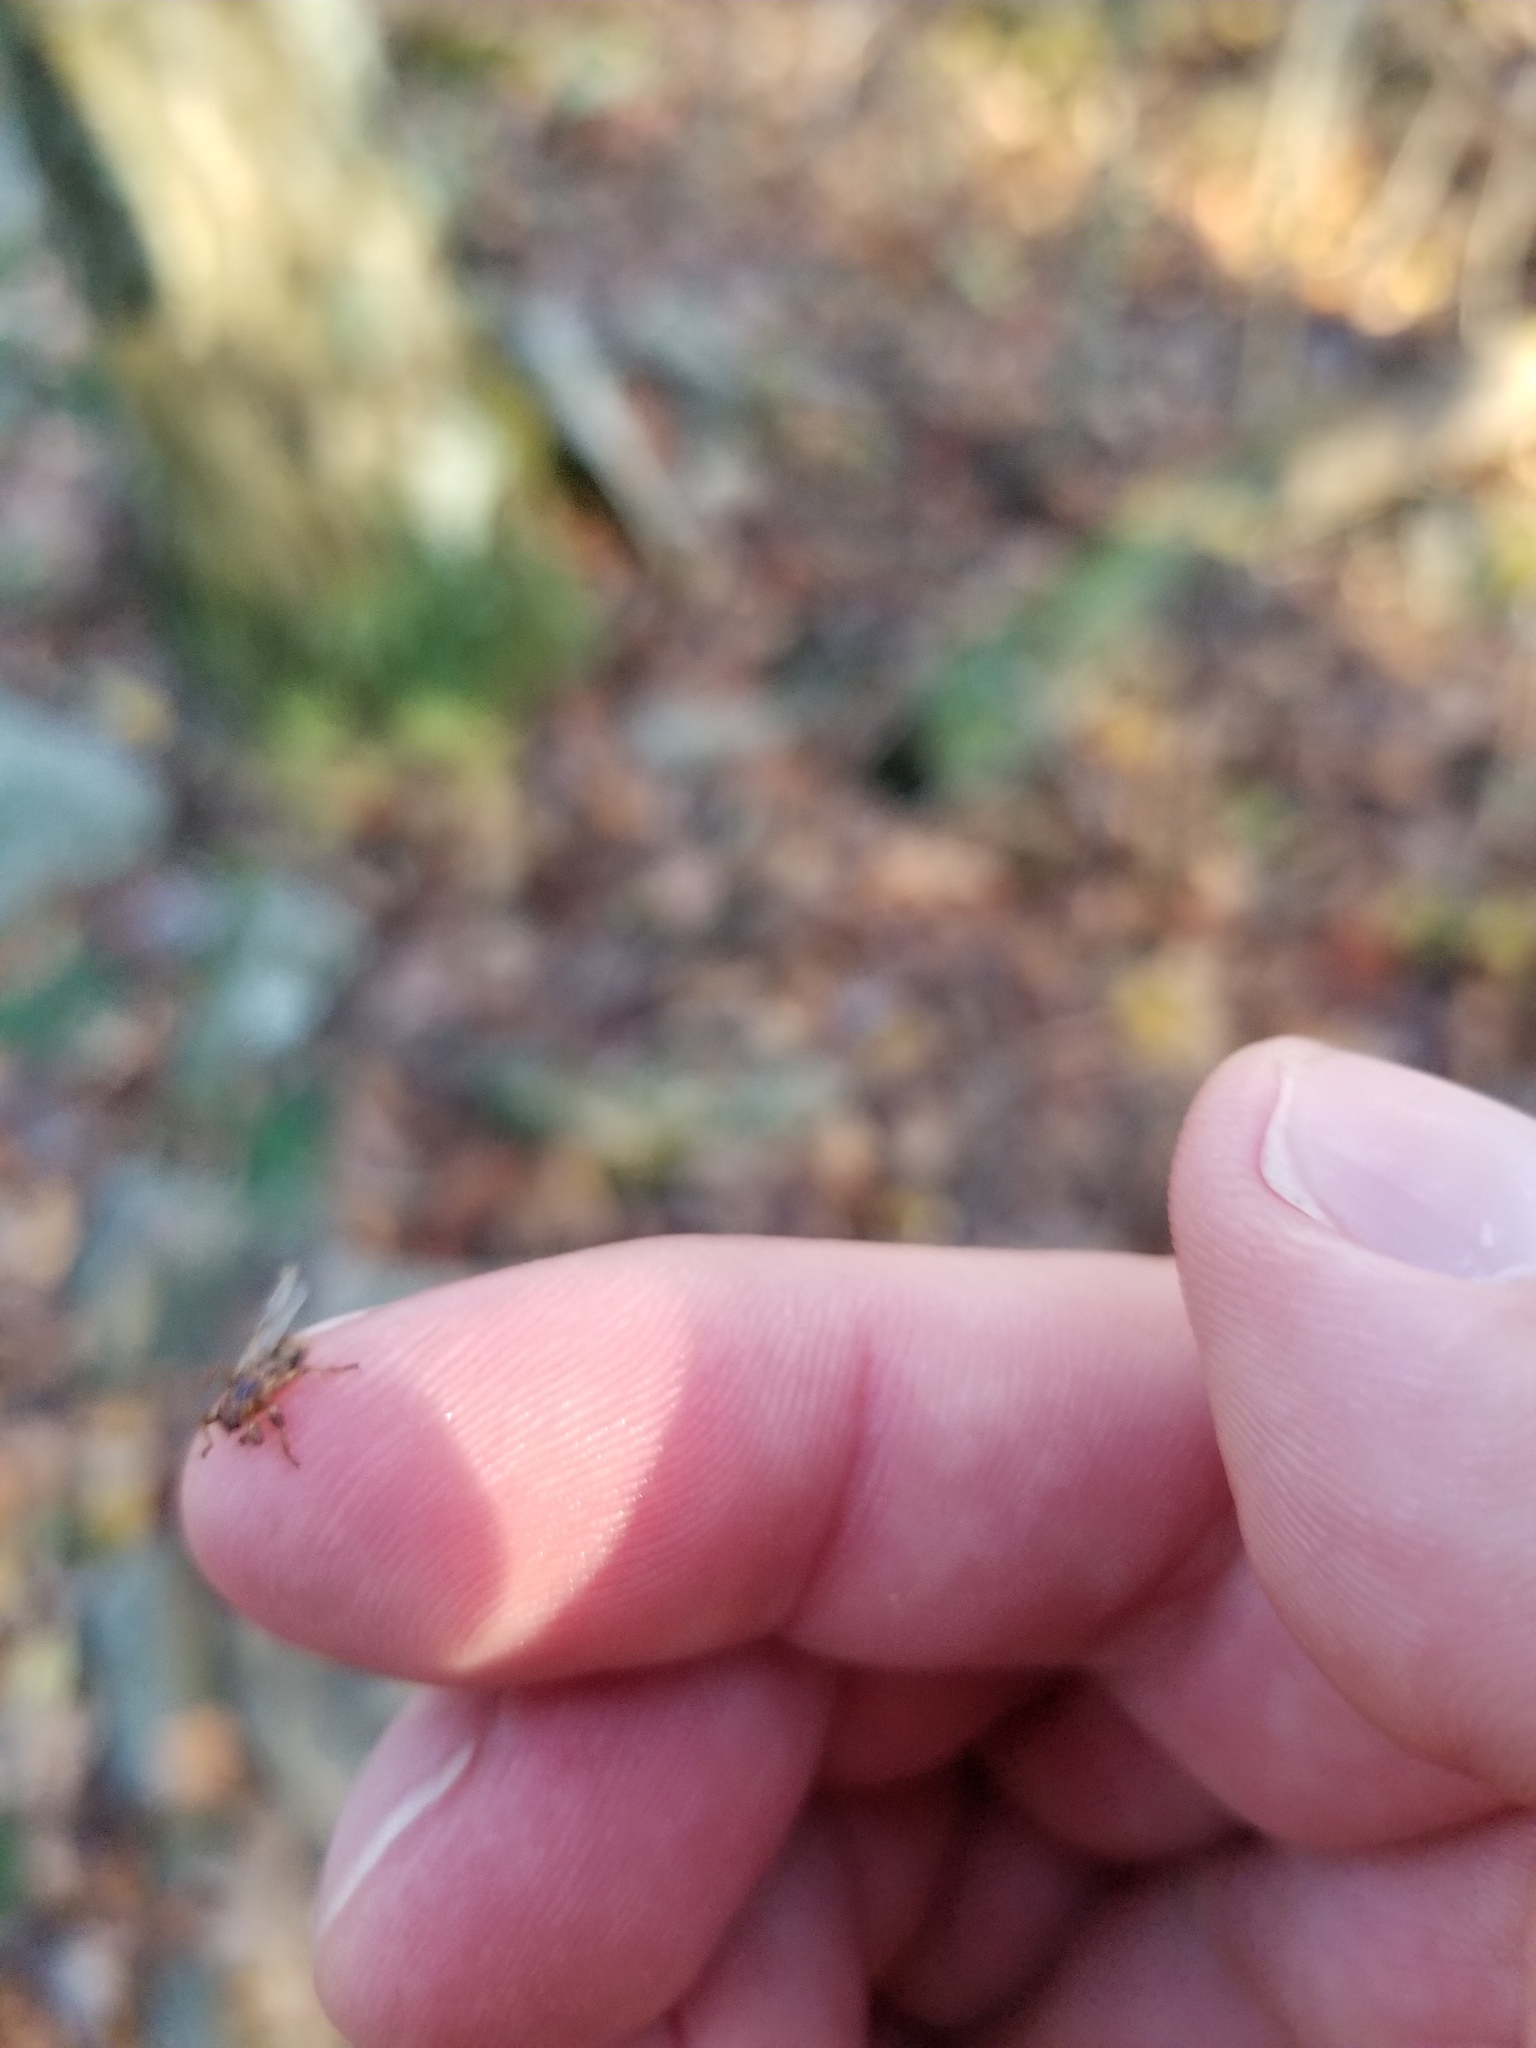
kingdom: Animalia
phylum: Arthropoda
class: Insecta
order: Diptera
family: Hippoboscidae
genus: Lipoptena
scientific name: Lipoptena cervi
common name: Deer ked
